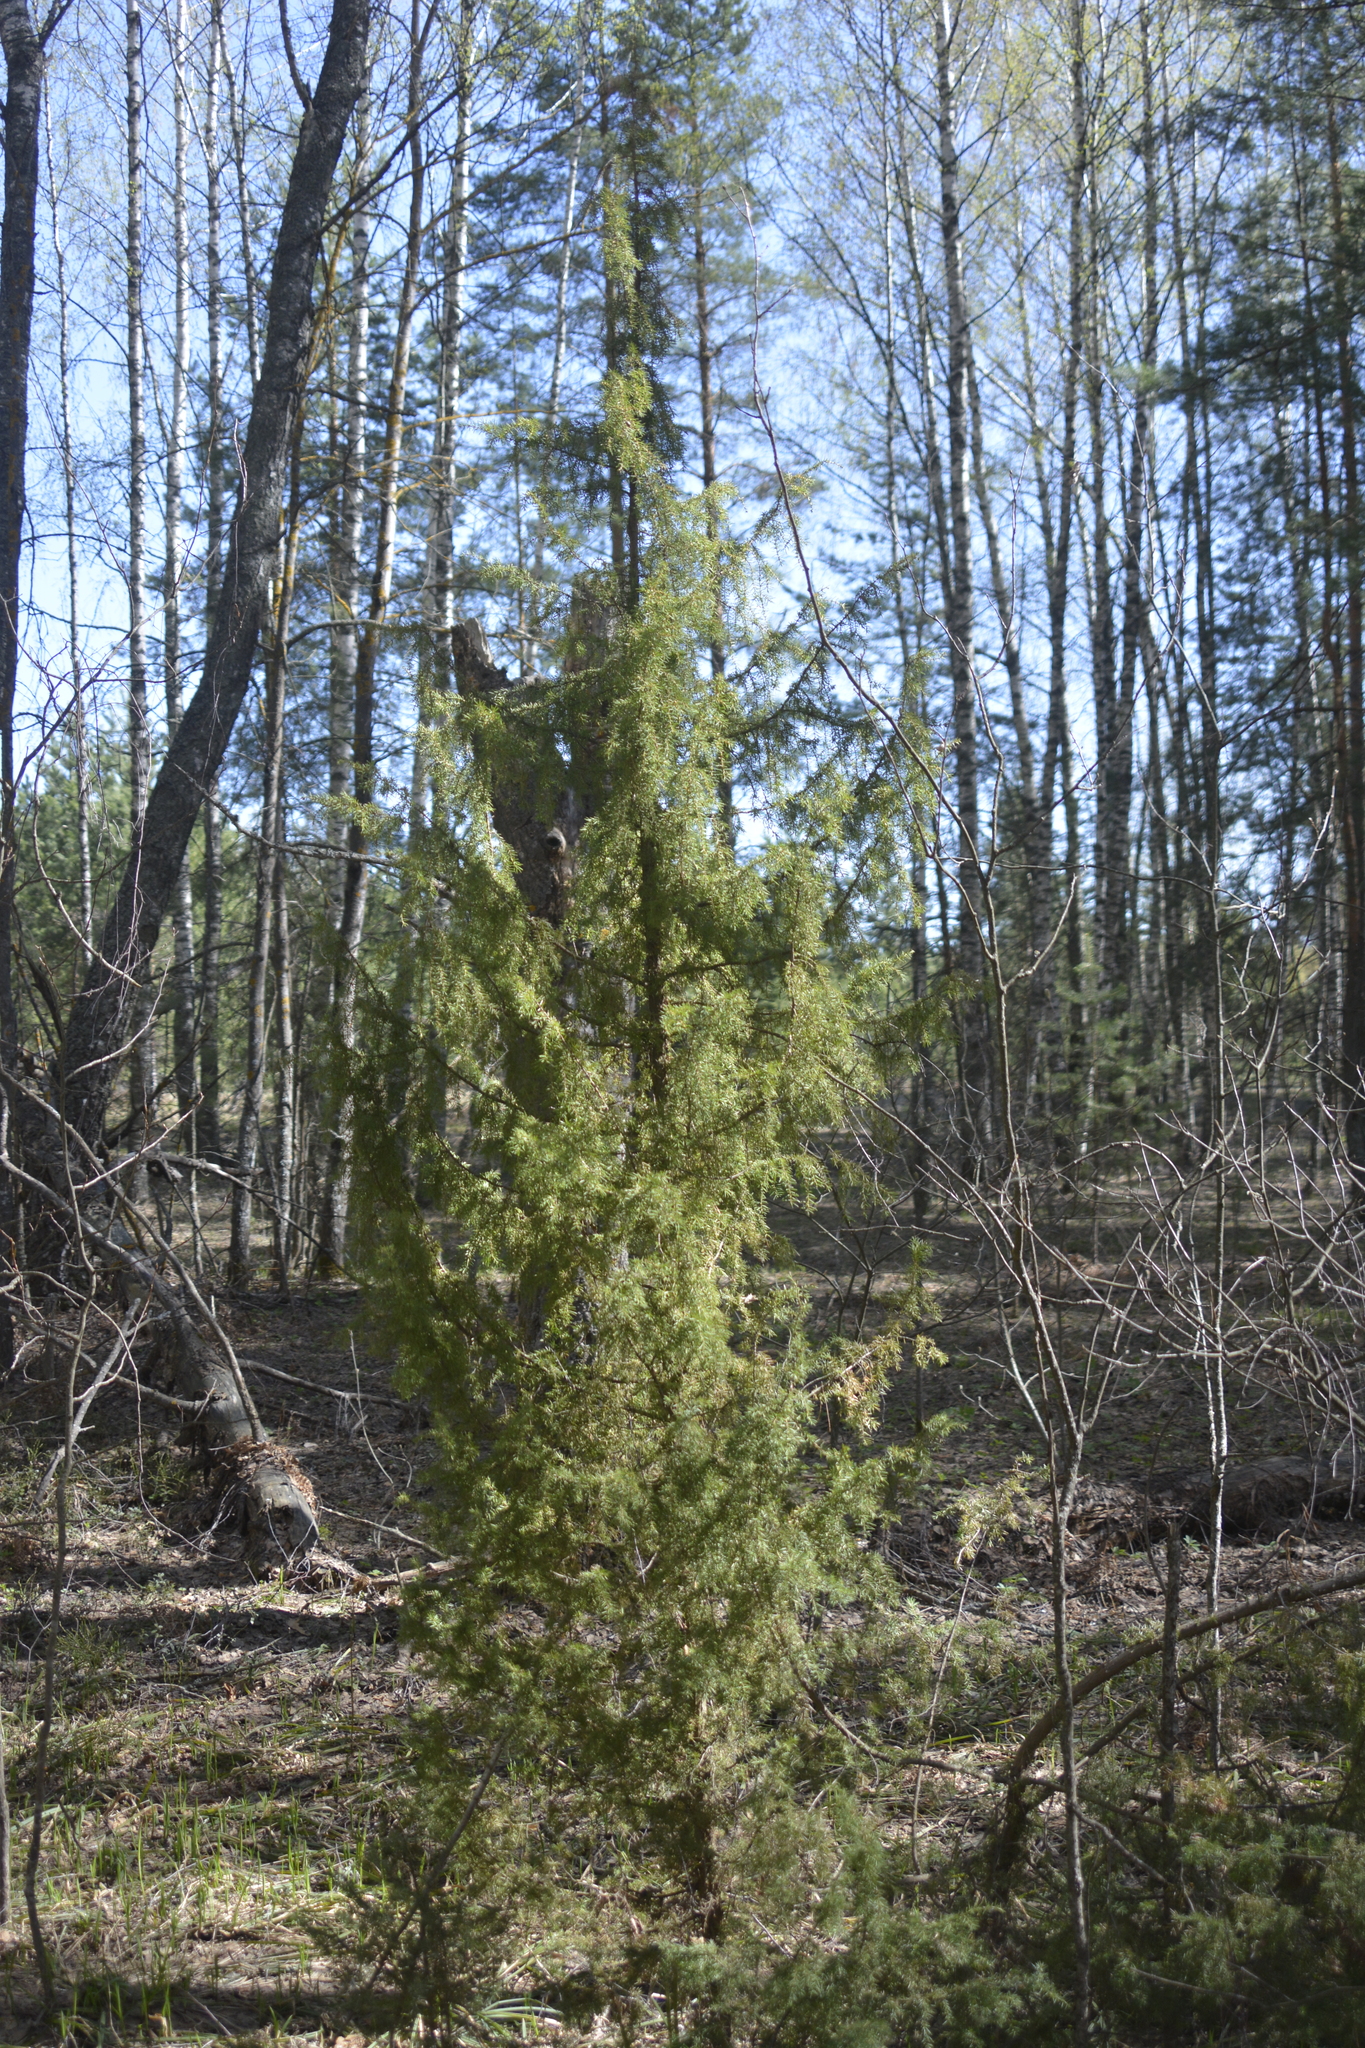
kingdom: Plantae
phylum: Tracheophyta
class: Pinopsida
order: Pinales
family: Cupressaceae
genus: Juniperus
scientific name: Juniperus communis
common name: Common juniper
